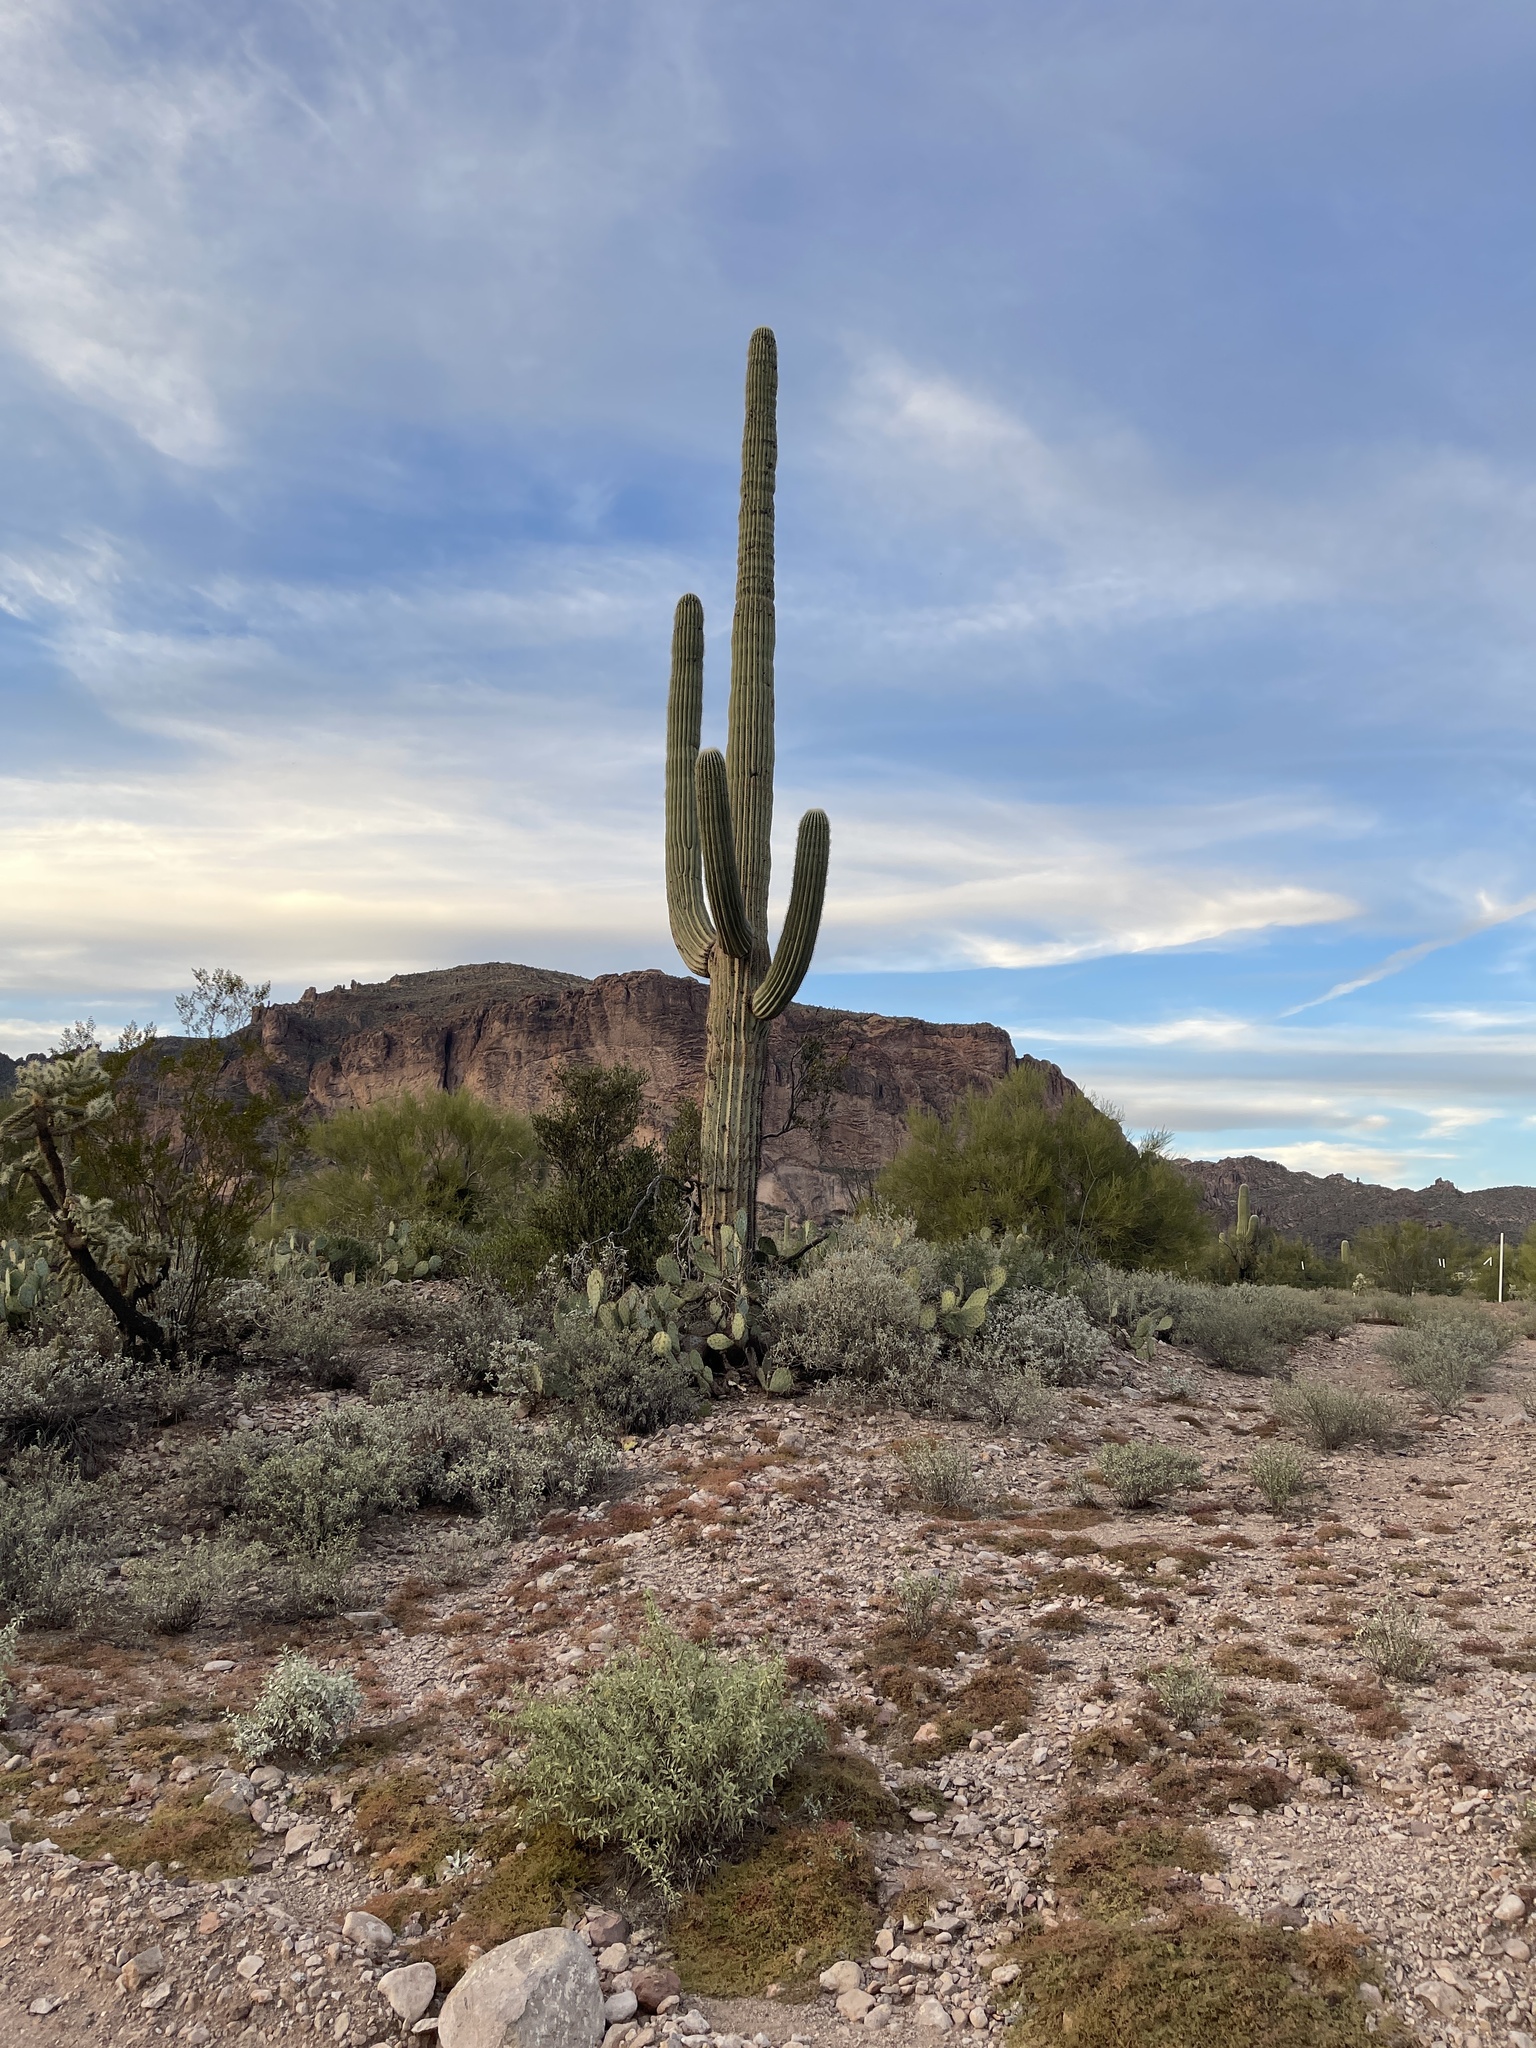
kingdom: Plantae
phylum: Tracheophyta
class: Magnoliopsida
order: Caryophyllales
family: Cactaceae
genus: Carnegiea
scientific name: Carnegiea gigantea
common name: Saguaro
